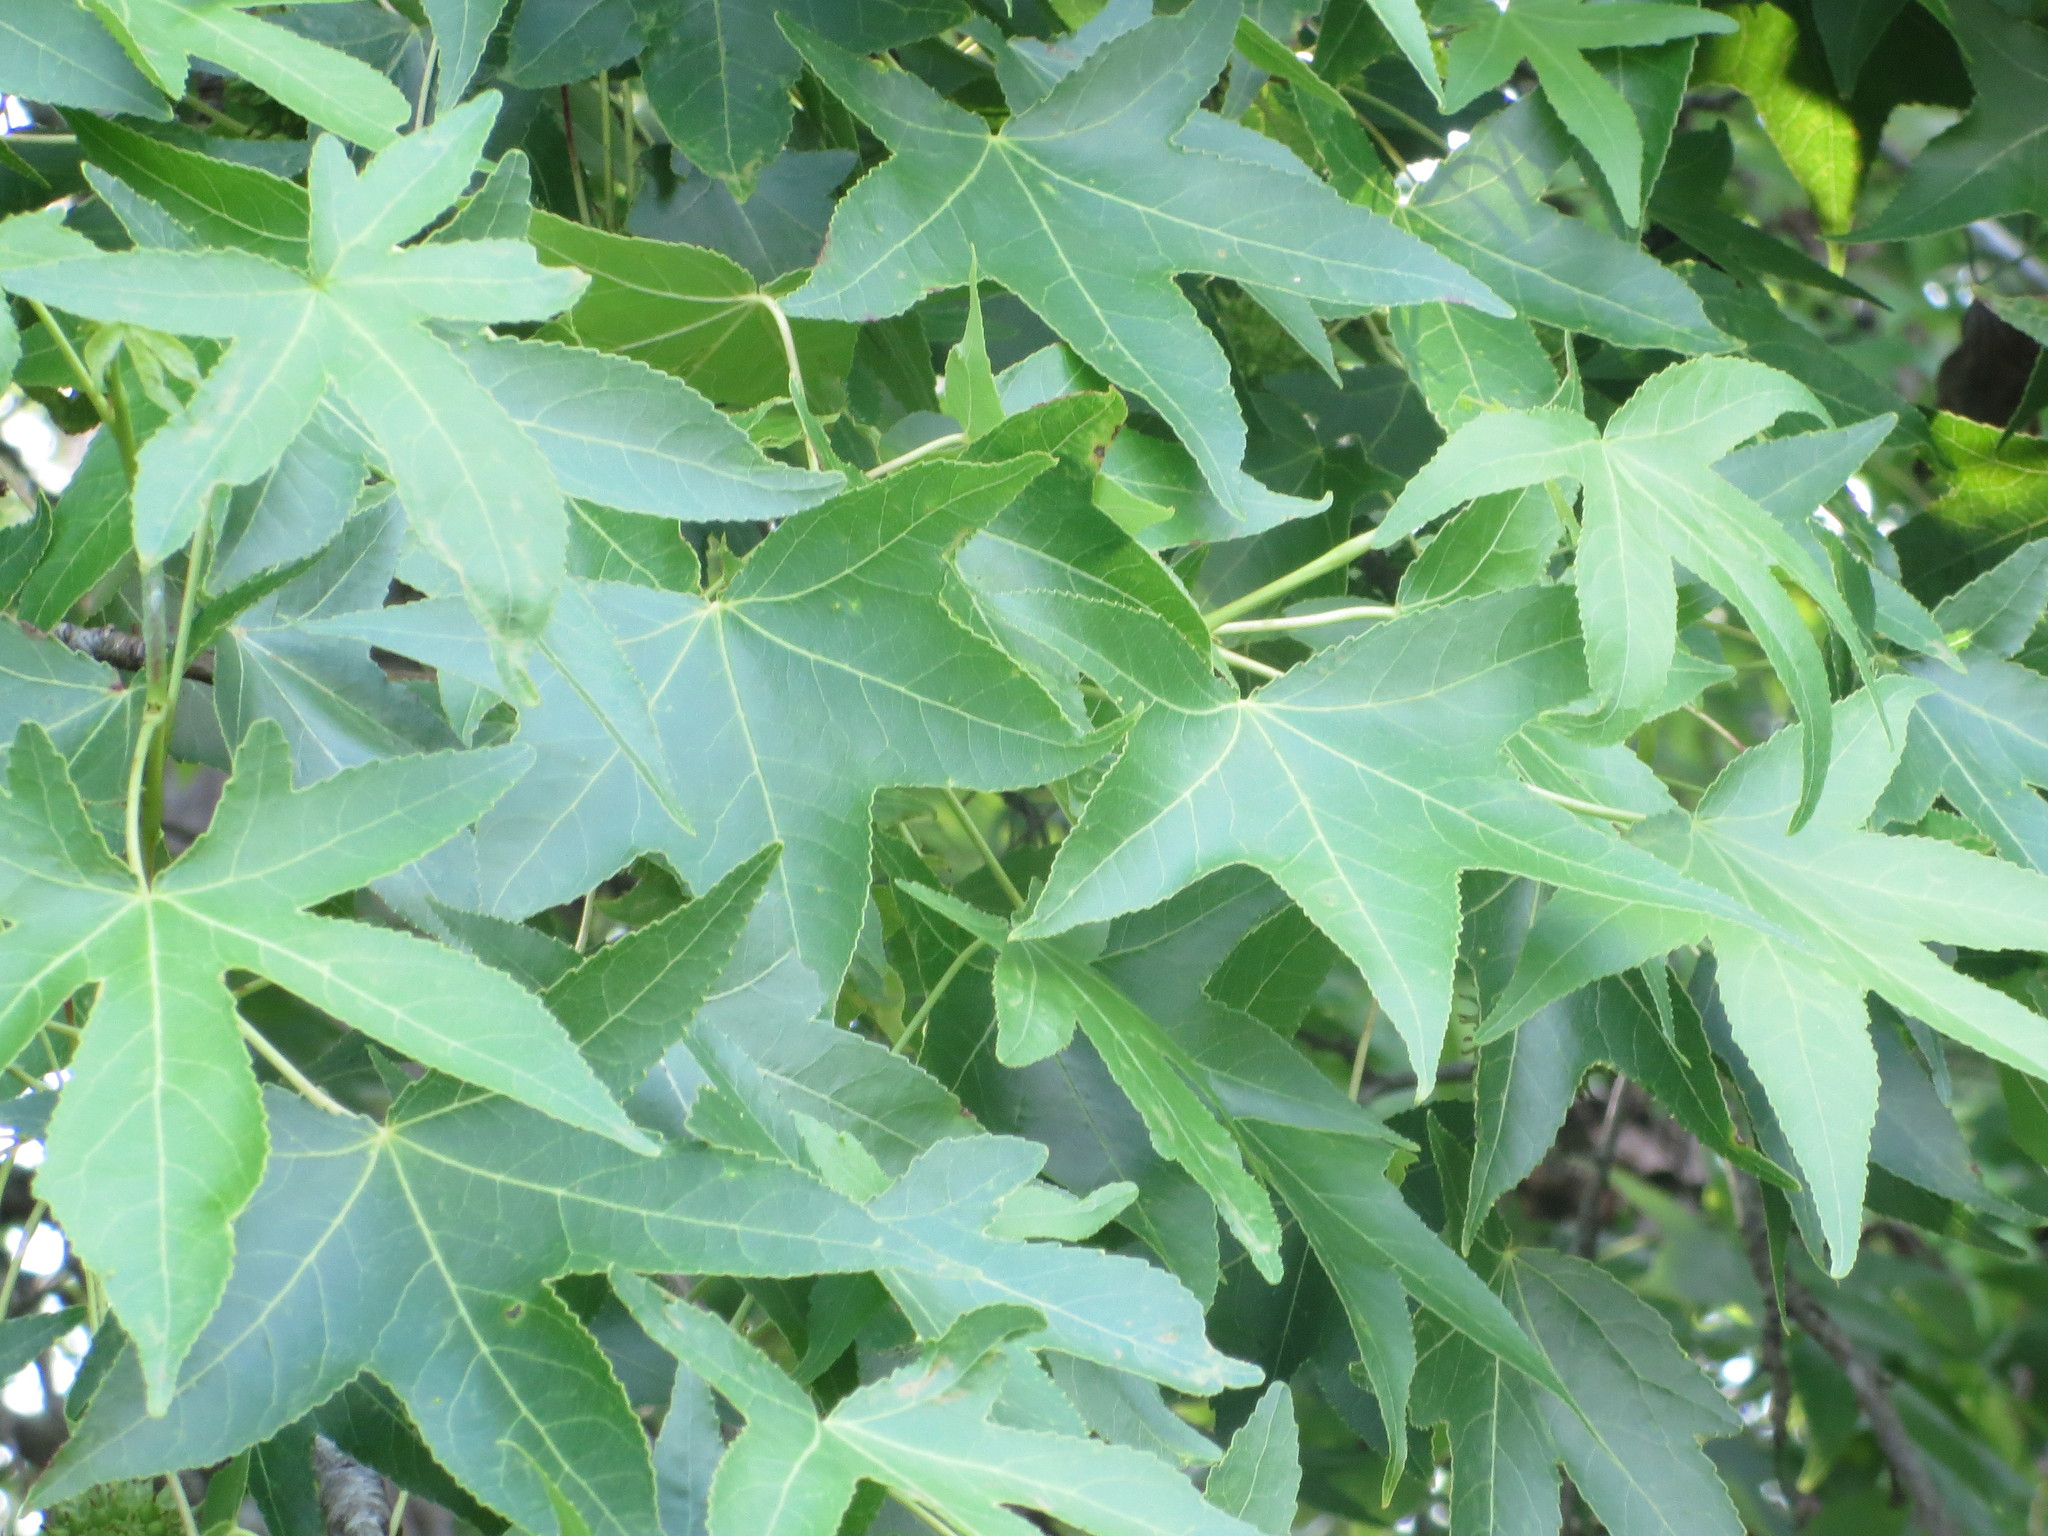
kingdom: Plantae
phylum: Tracheophyta
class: Magnoliopsida
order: Saxifragales
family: Altingiaceae
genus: Liquidambar
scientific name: Liquidambar styraciflua
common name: Sweet gum
